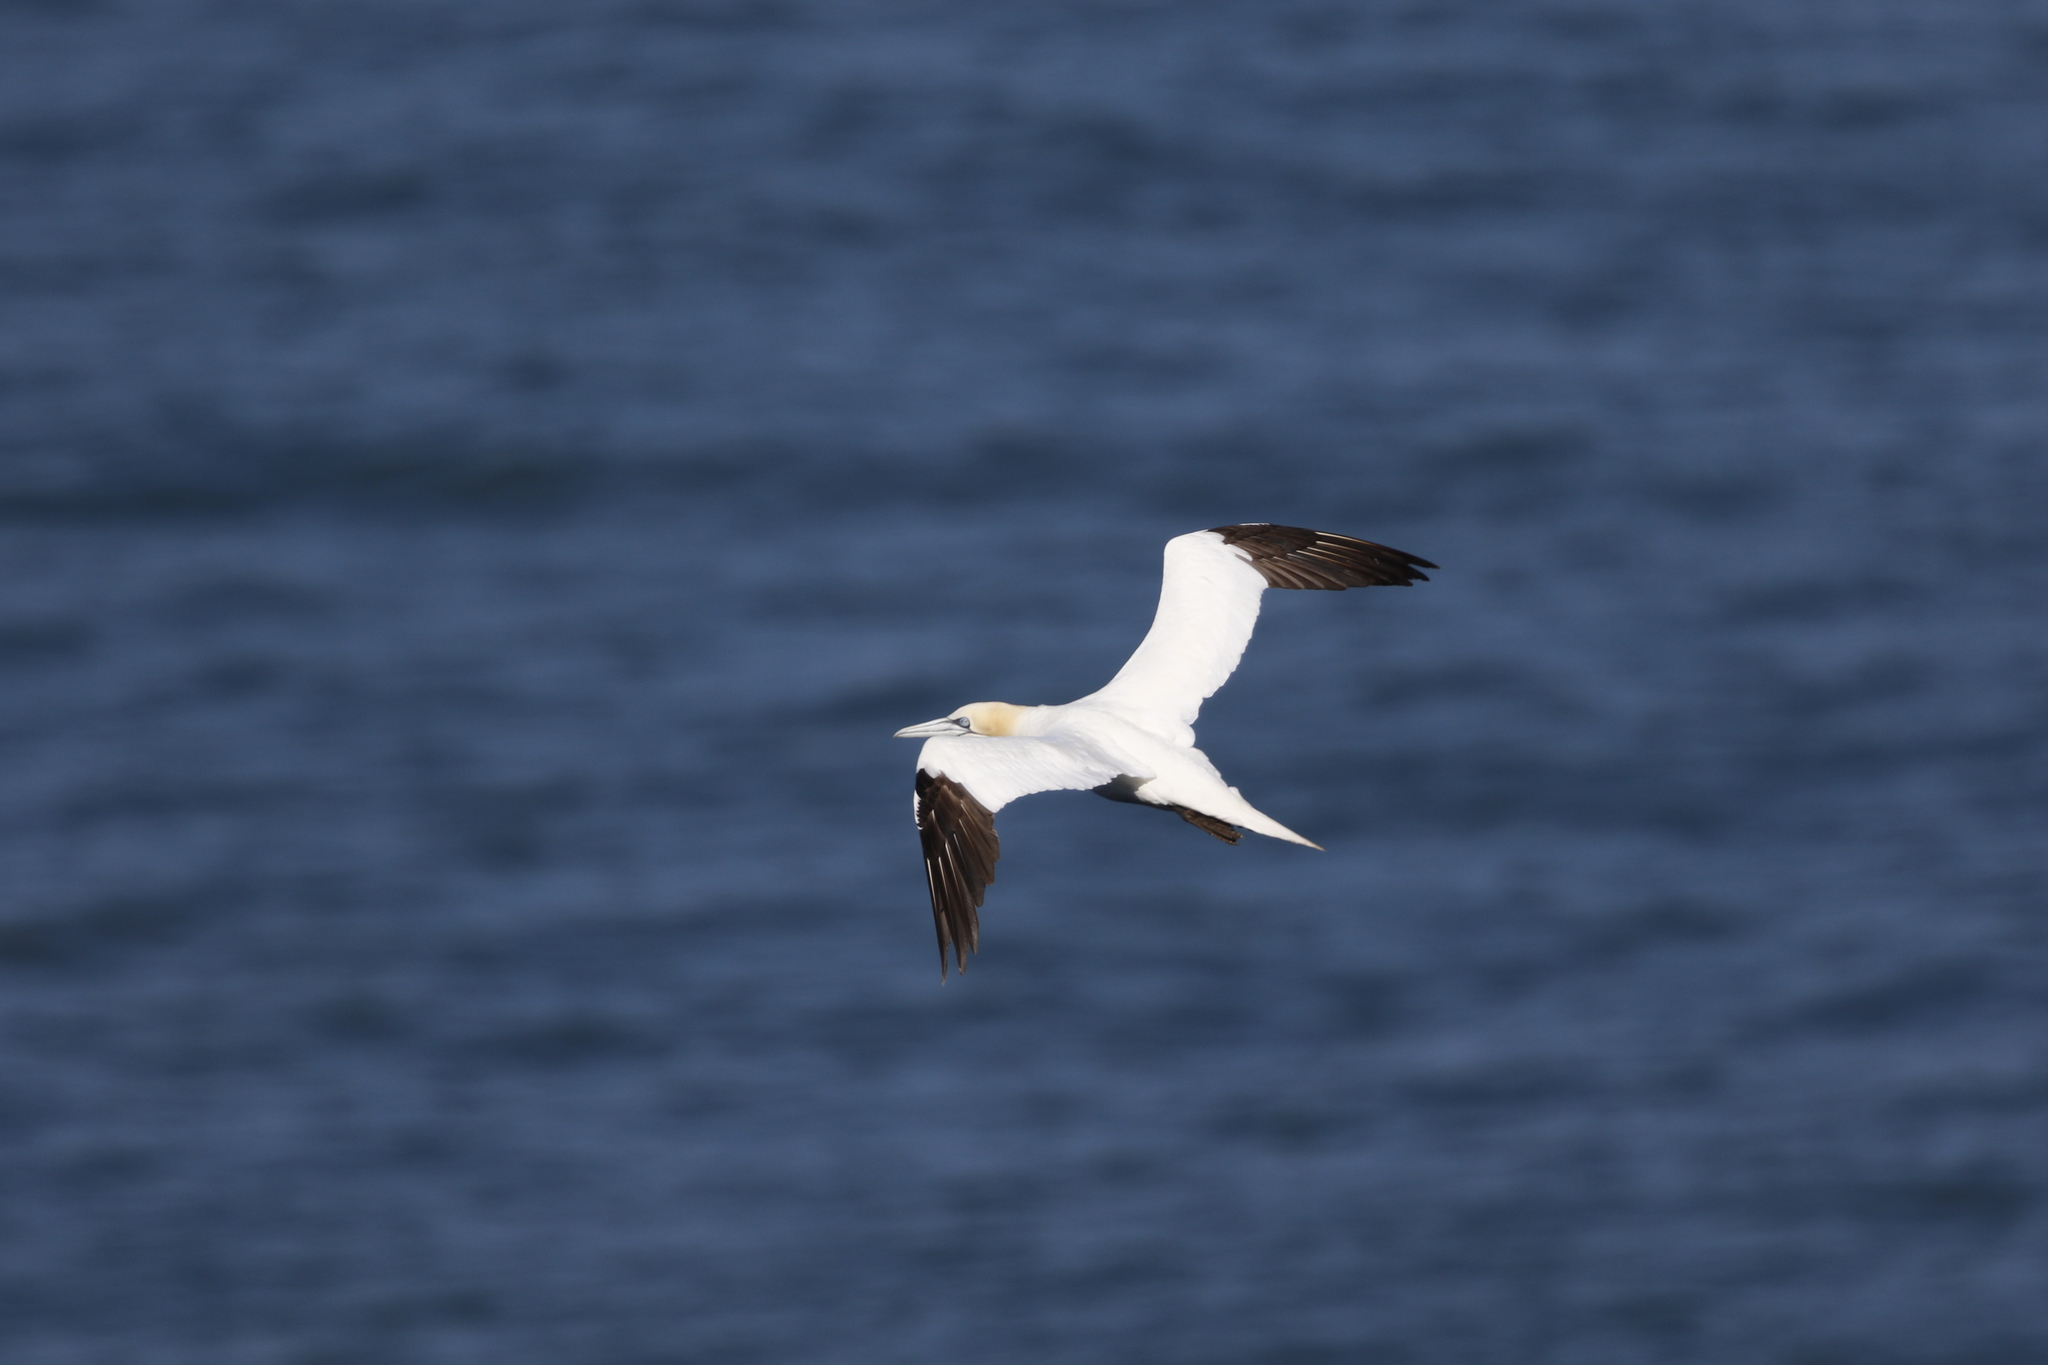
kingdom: Animalia
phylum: Chordata
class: Aves
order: Suliformes
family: Sulidae
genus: Morus
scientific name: Morus bassanus
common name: Northern gannet
